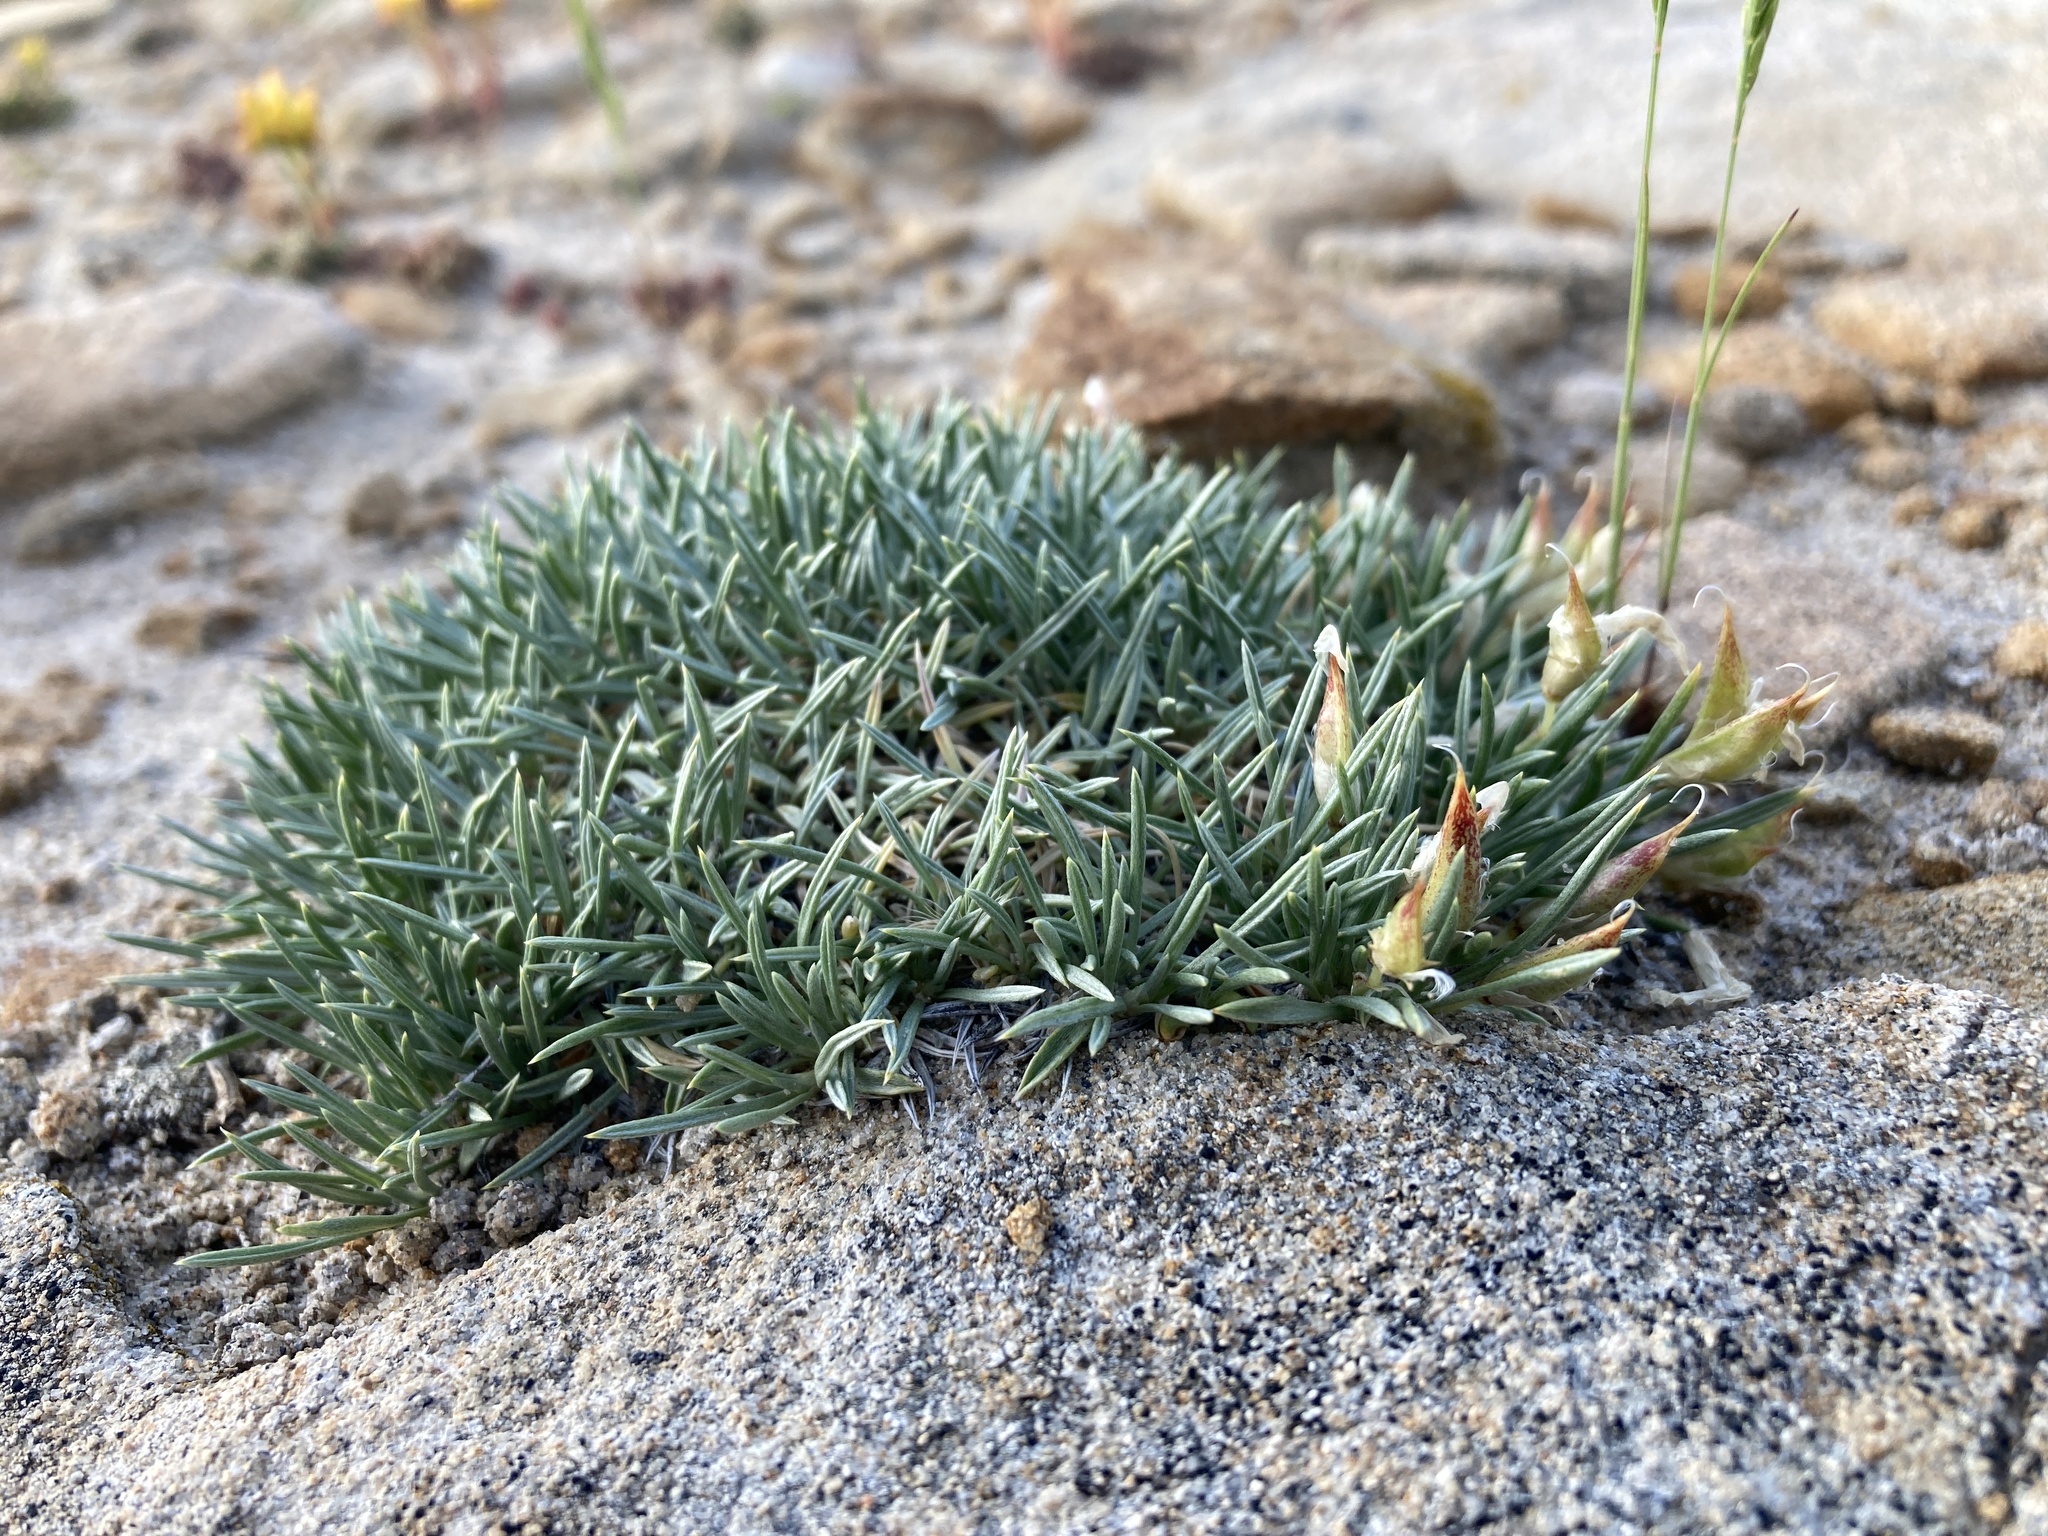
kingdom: Plantae
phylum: Tracheophyta
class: Magnoliopsida
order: Fabales
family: Fabaceae
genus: Astragalus
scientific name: Astragalus simplicifolius
